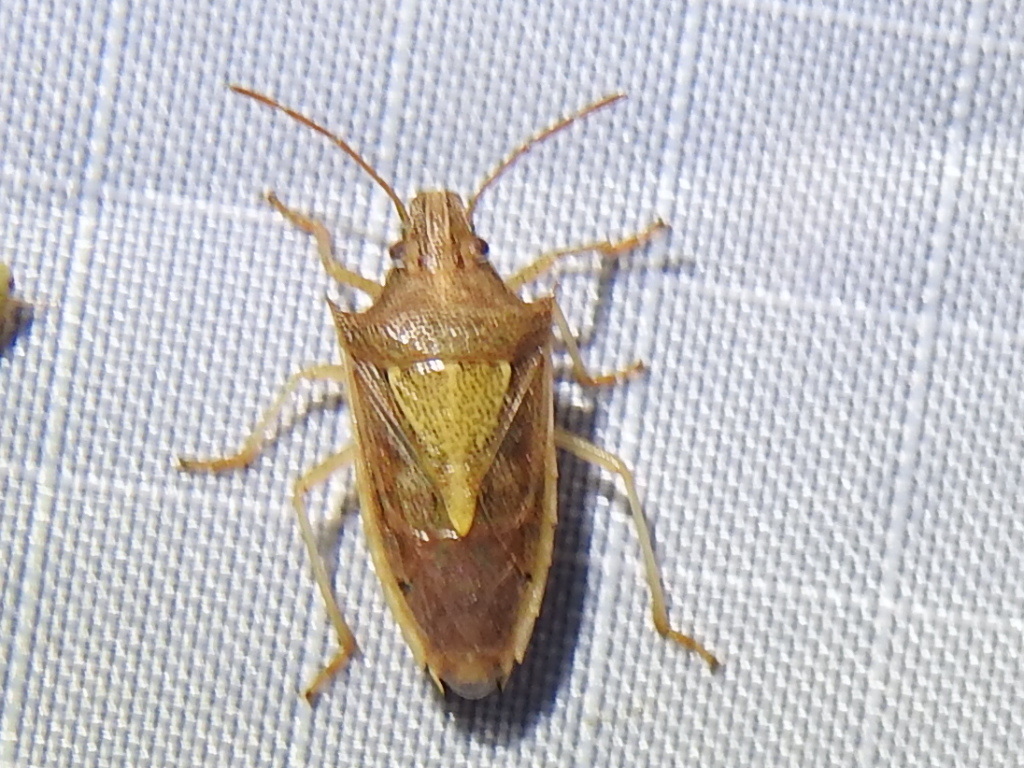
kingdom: Animalia
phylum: Arthropoda
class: Insecta
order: Hemiptera
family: Pentatomidae
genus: Oebalus
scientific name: Oebalus pugnax
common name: Rice stink bug
